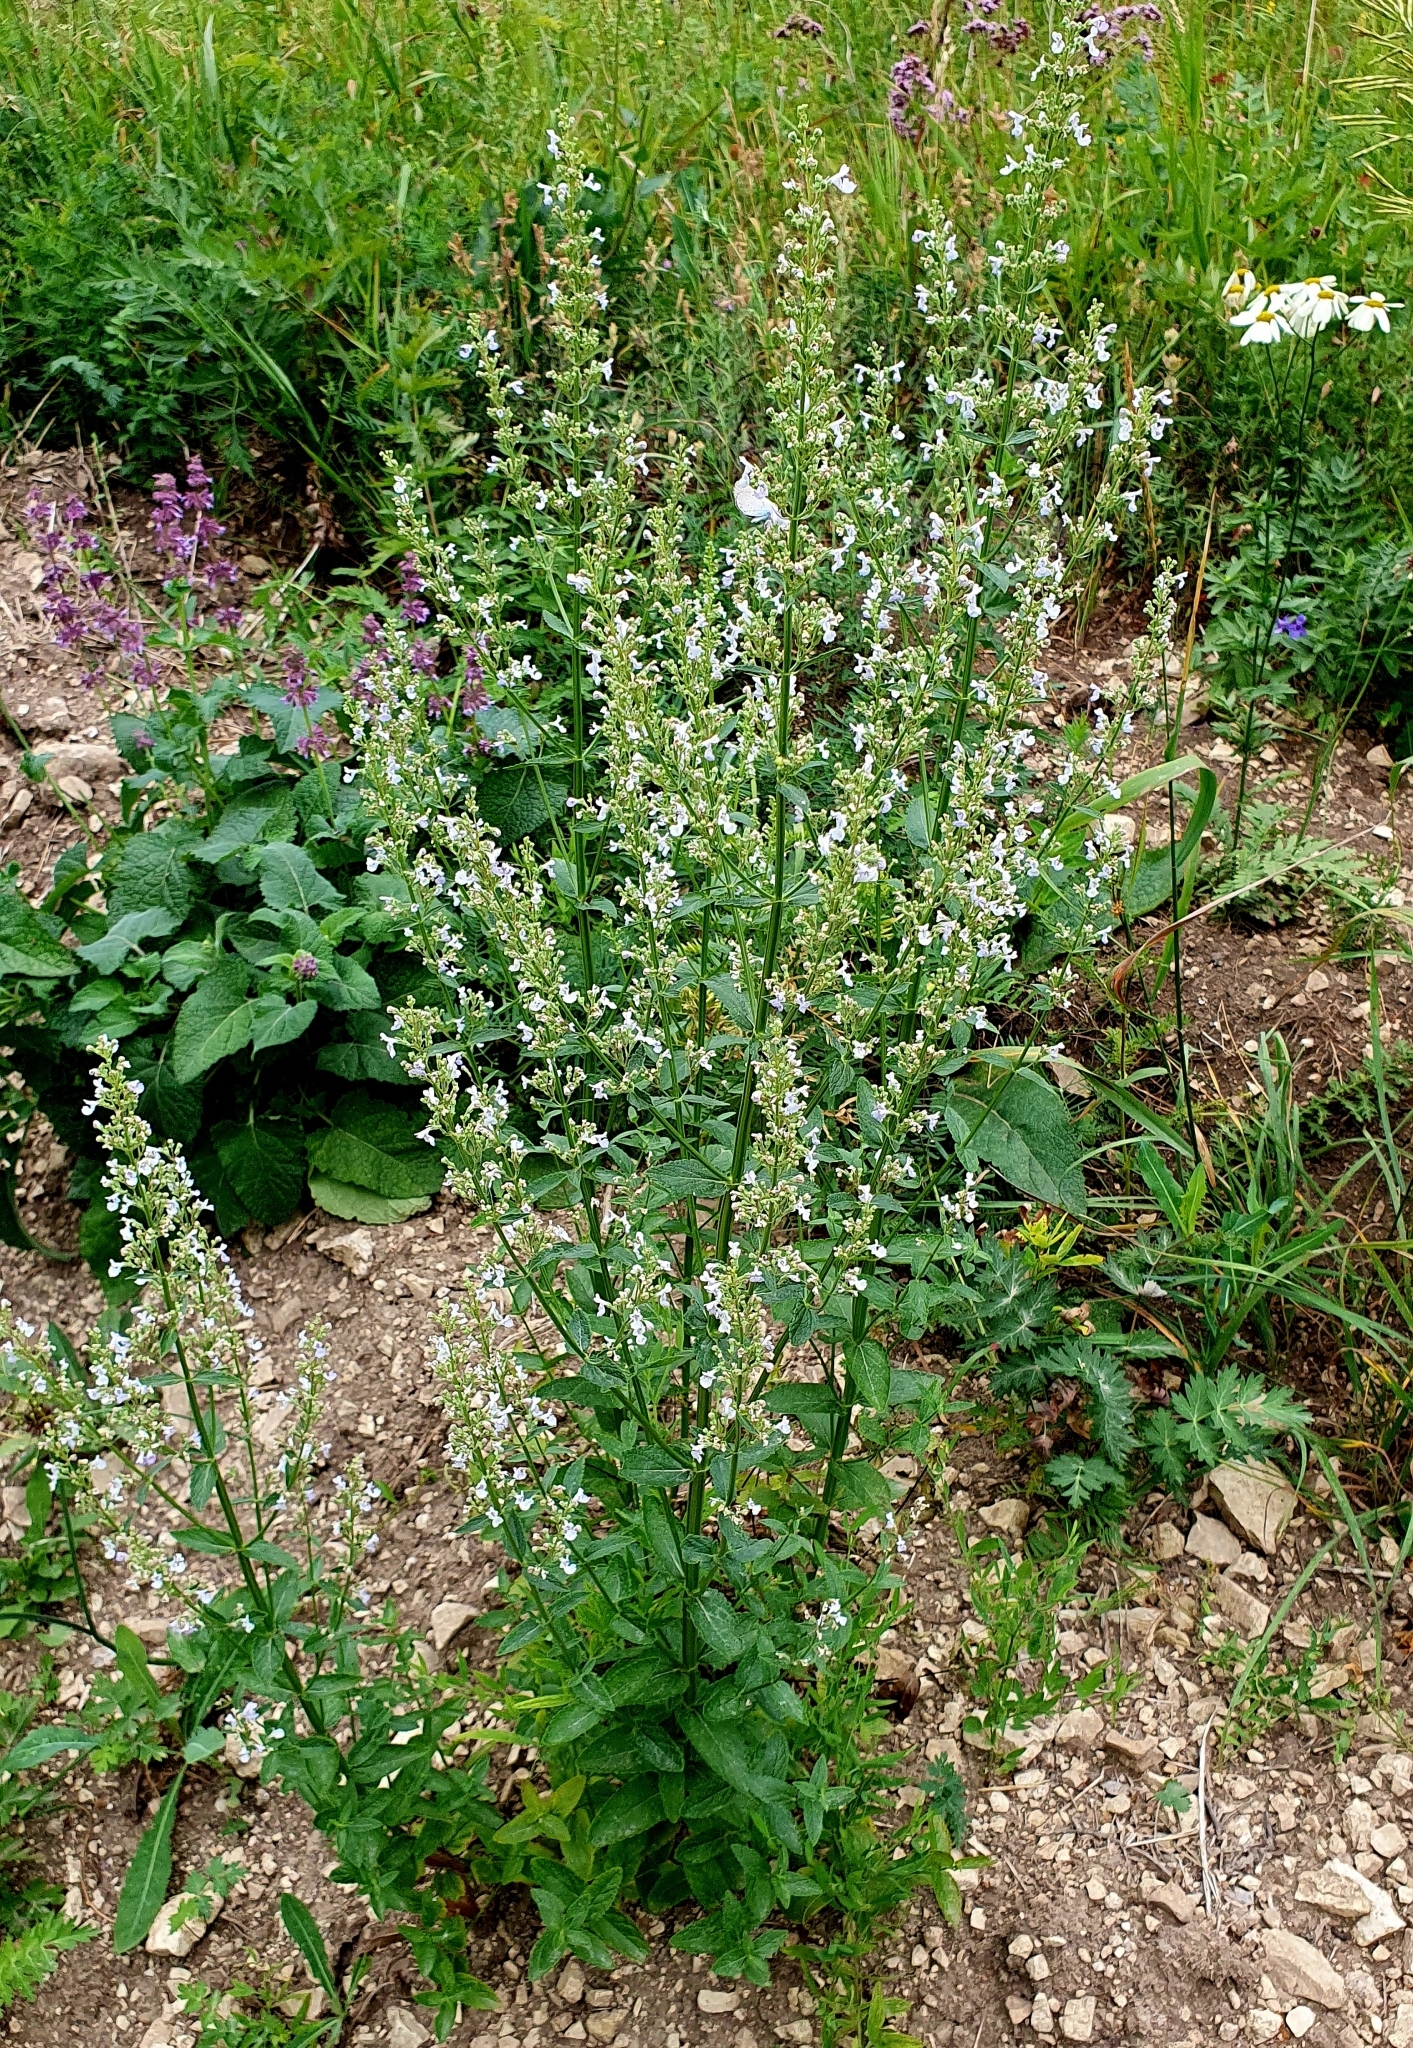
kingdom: Plantae
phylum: Tracheophyta
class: Magnoliopsida
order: Lamiales
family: Lamiaceae
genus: Nepeta
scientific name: Nepeta nuda
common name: Hairless catmint
